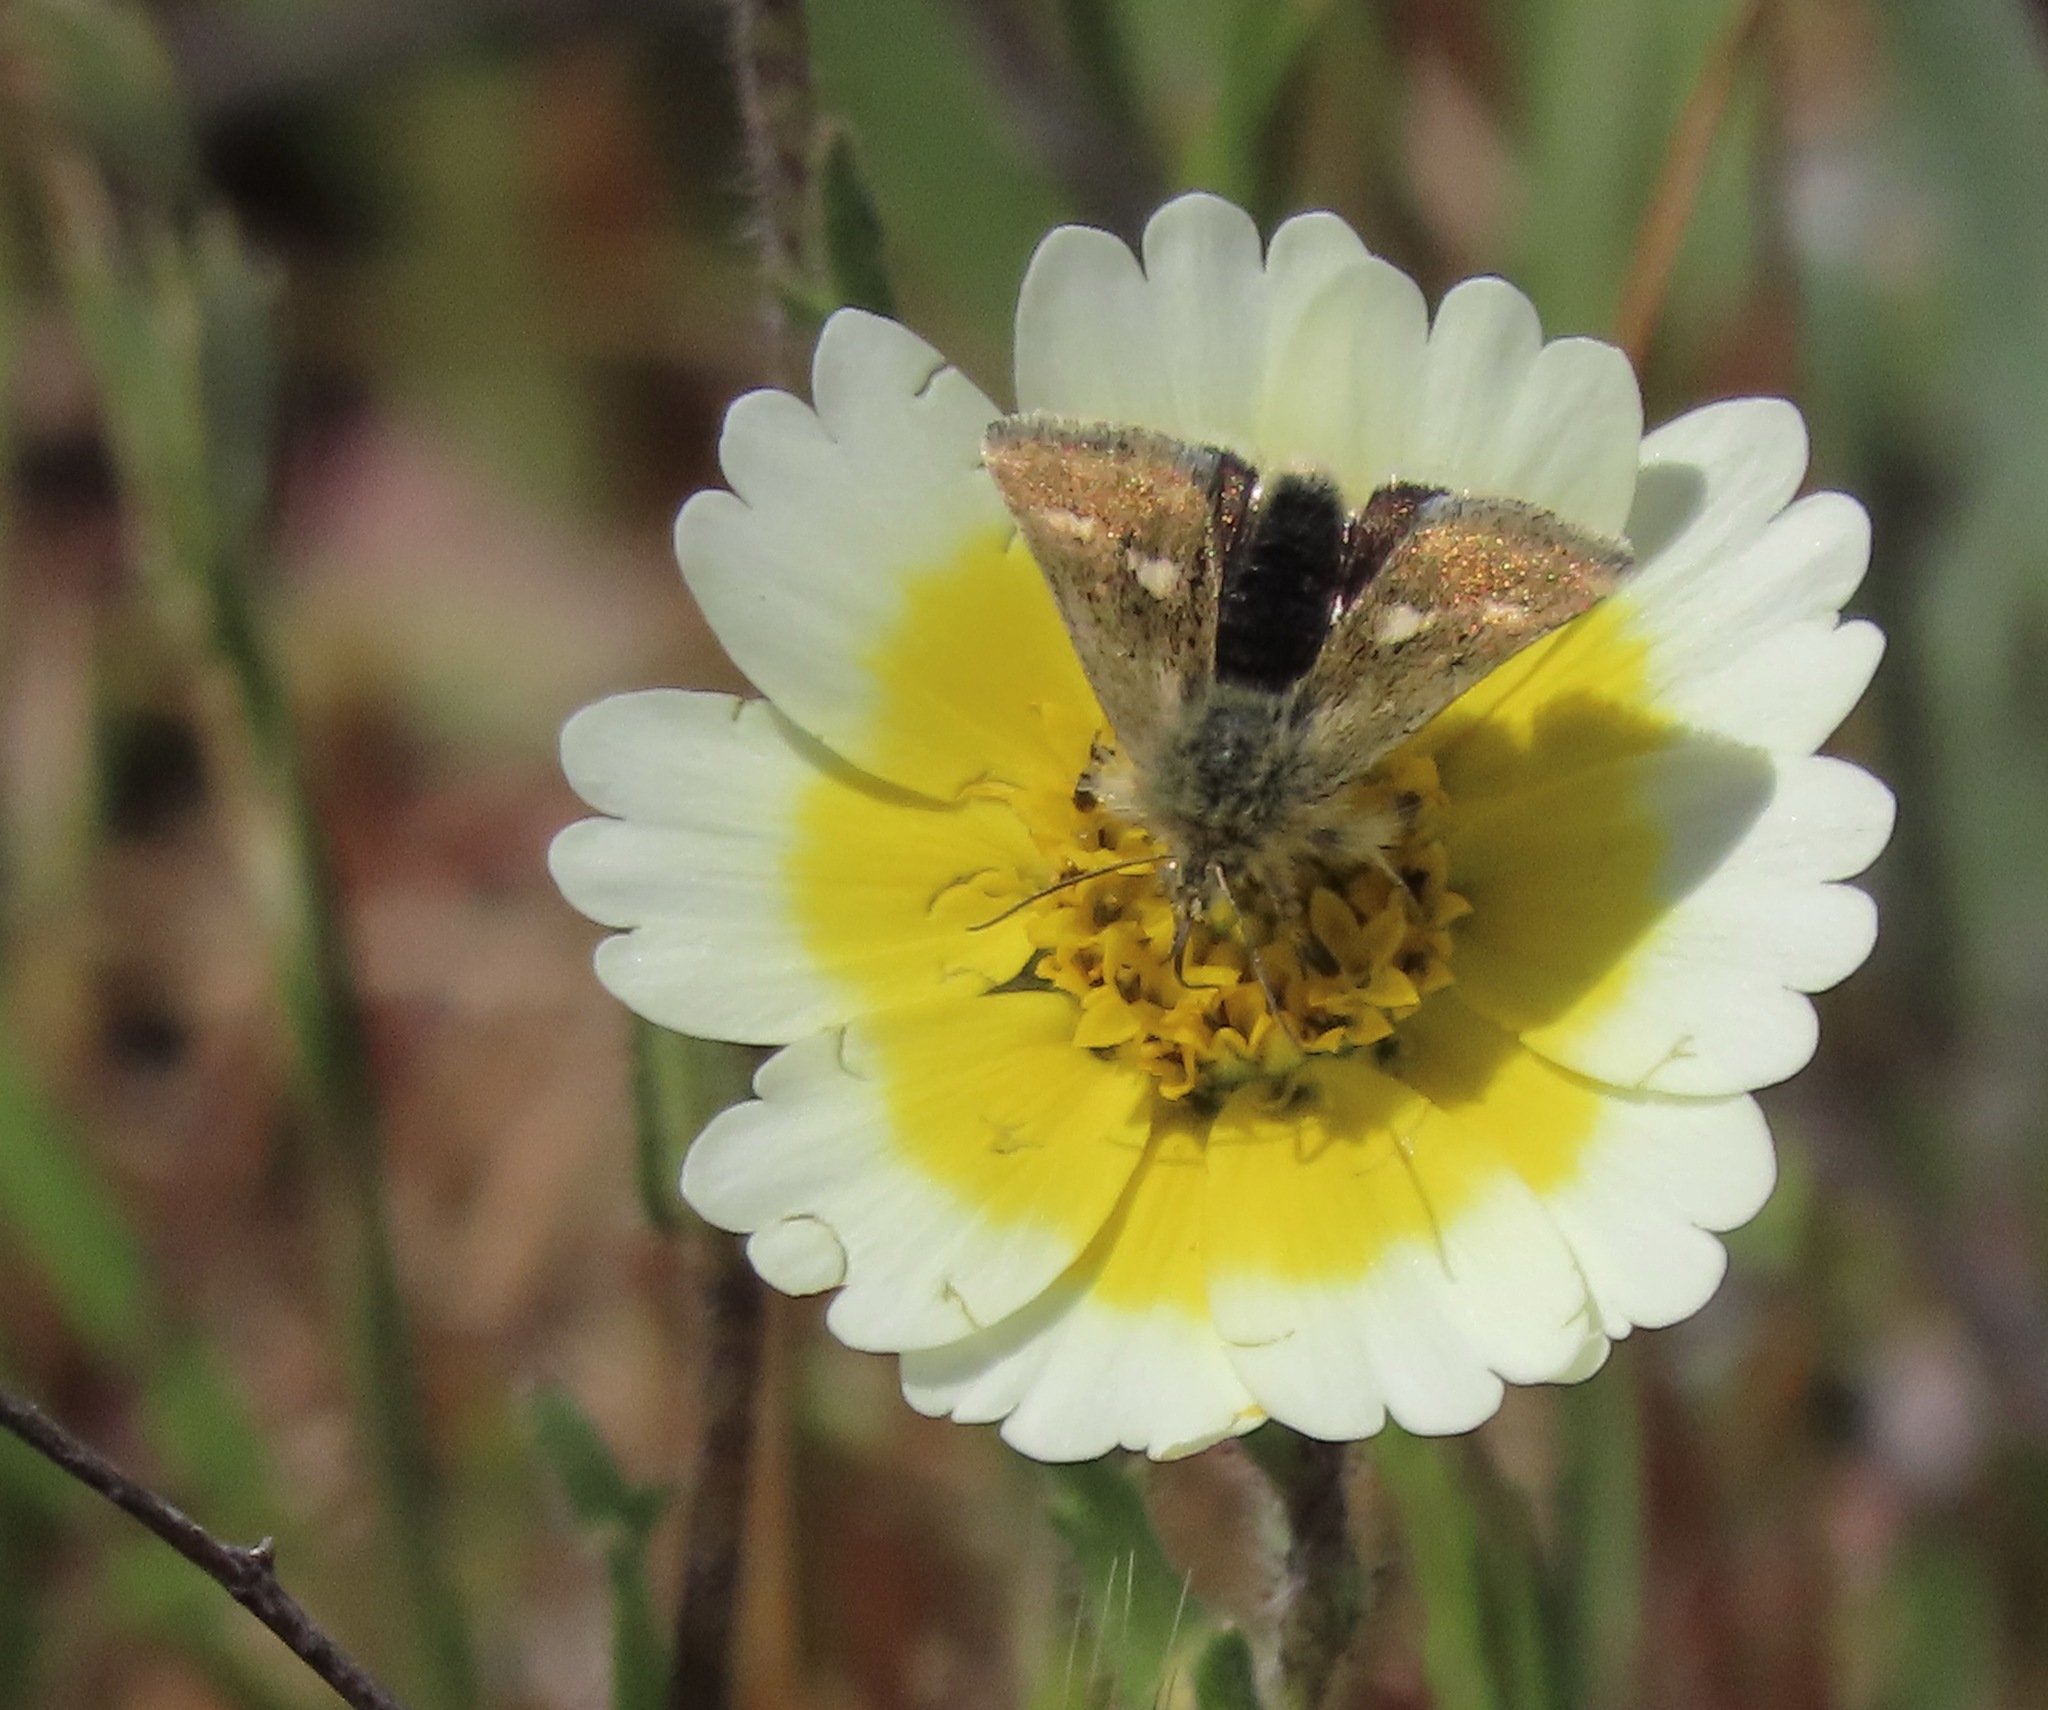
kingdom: Animalia
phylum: Arthropoda
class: Insecta
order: Lepidoptera
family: Noctuidae
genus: Heliothodes
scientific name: Heliothodes diminutiva
